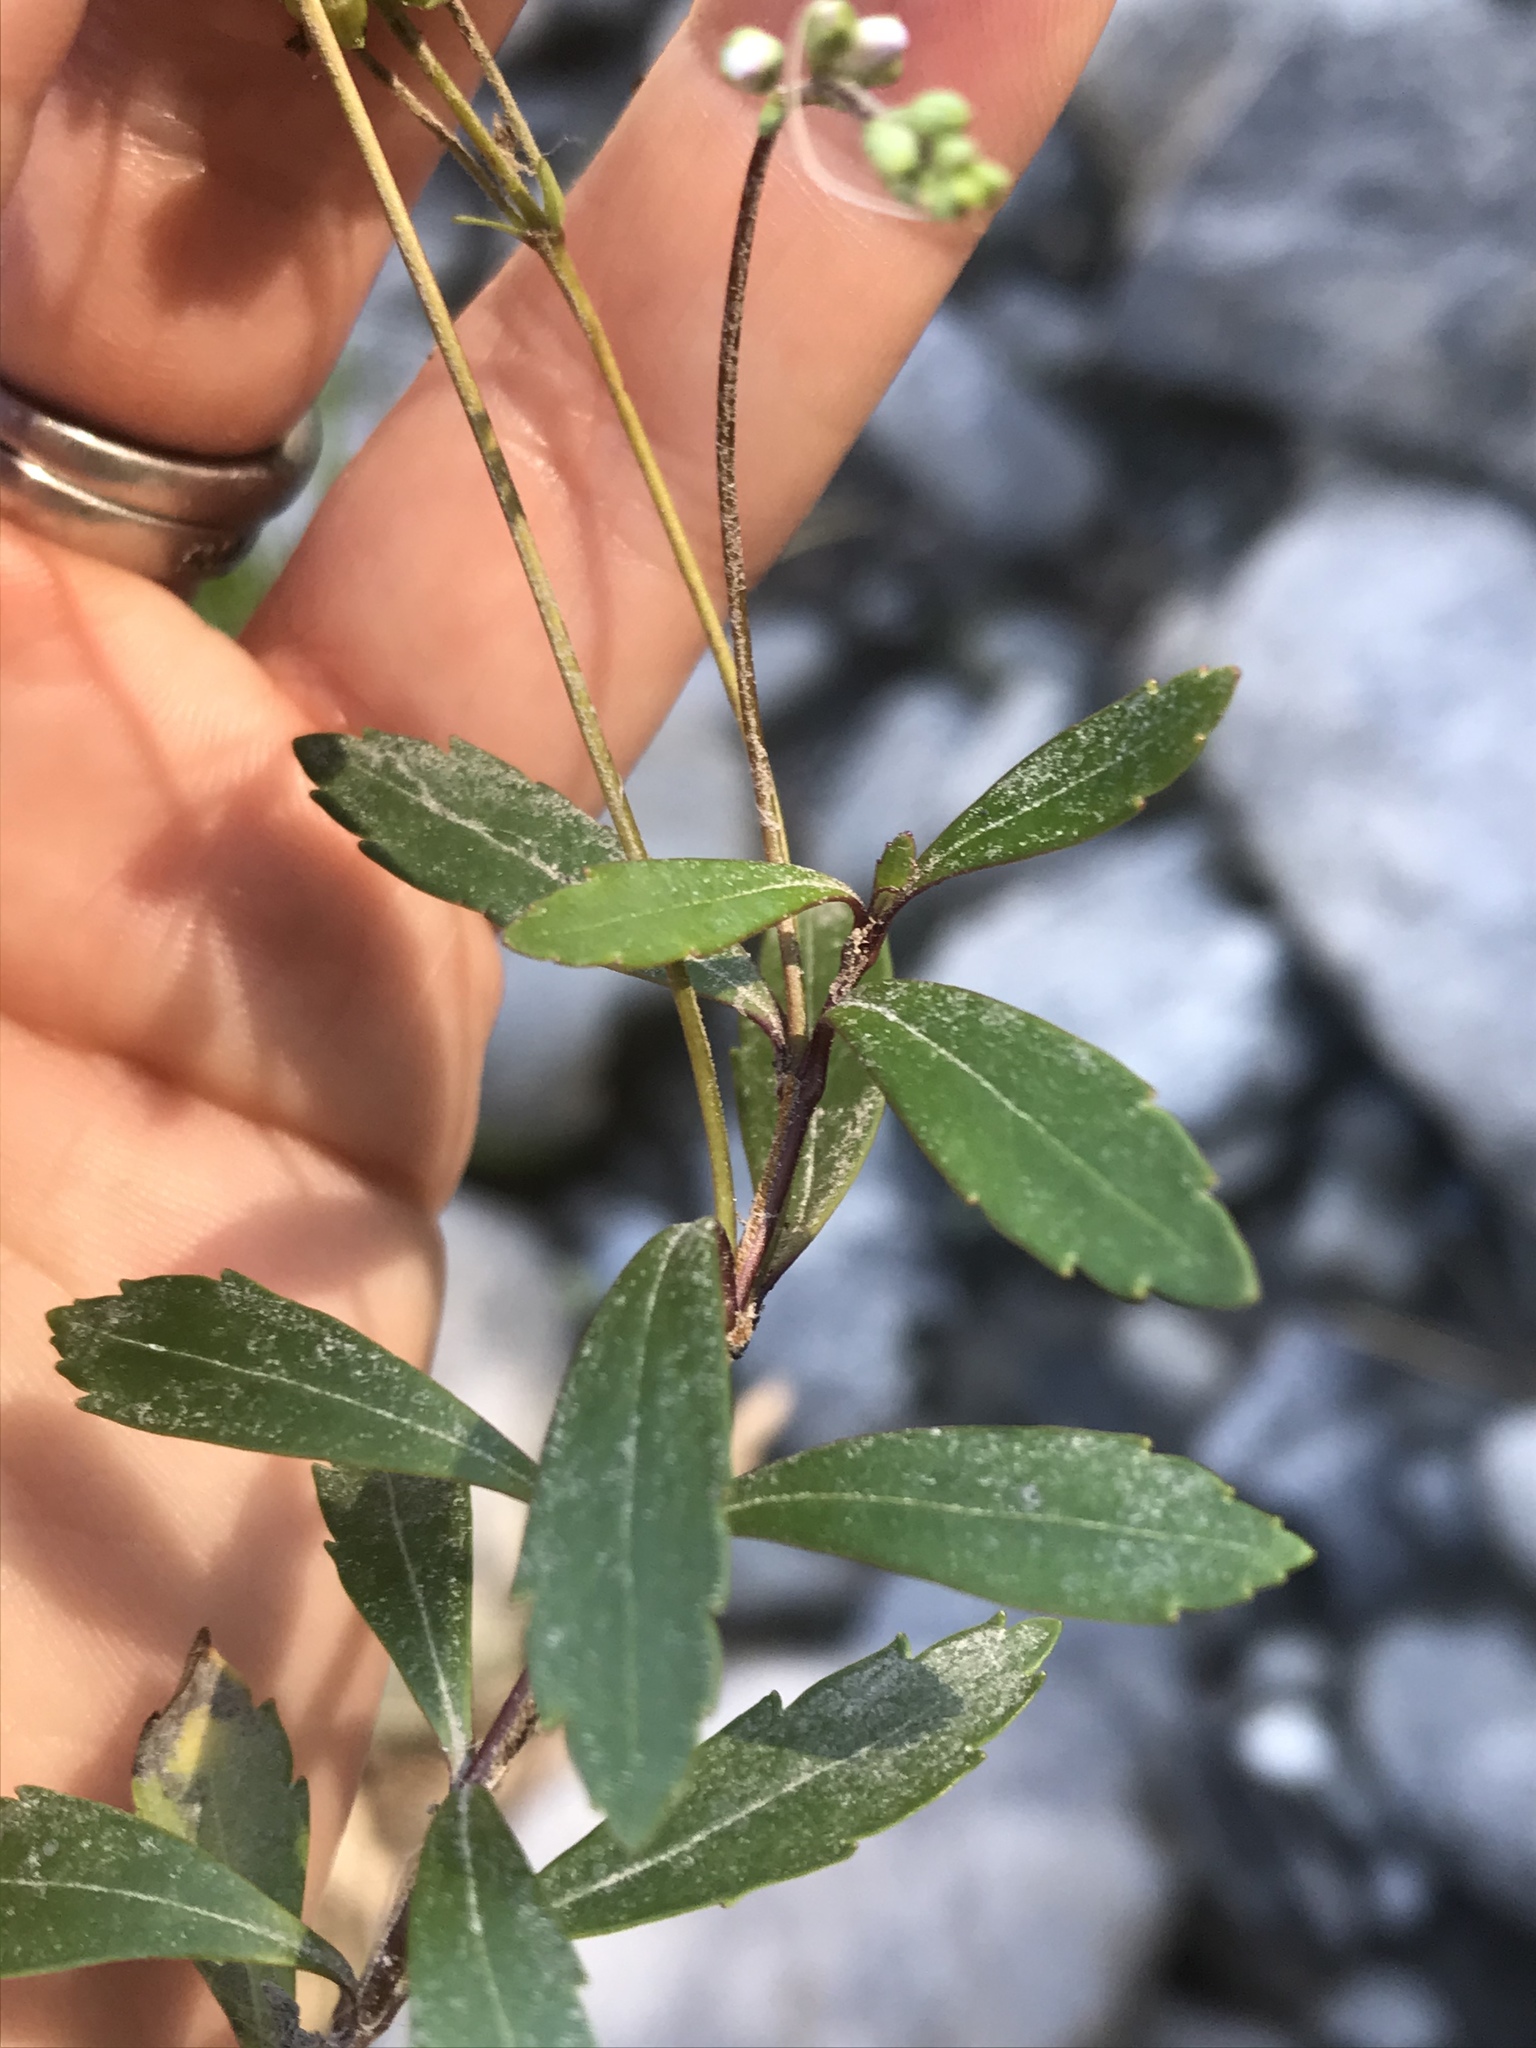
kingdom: Plantae
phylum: Tracheophyta
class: Magnoliopsida
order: Lamiales
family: Plantaginaceae
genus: Veronica
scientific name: Veronica lanceolata
